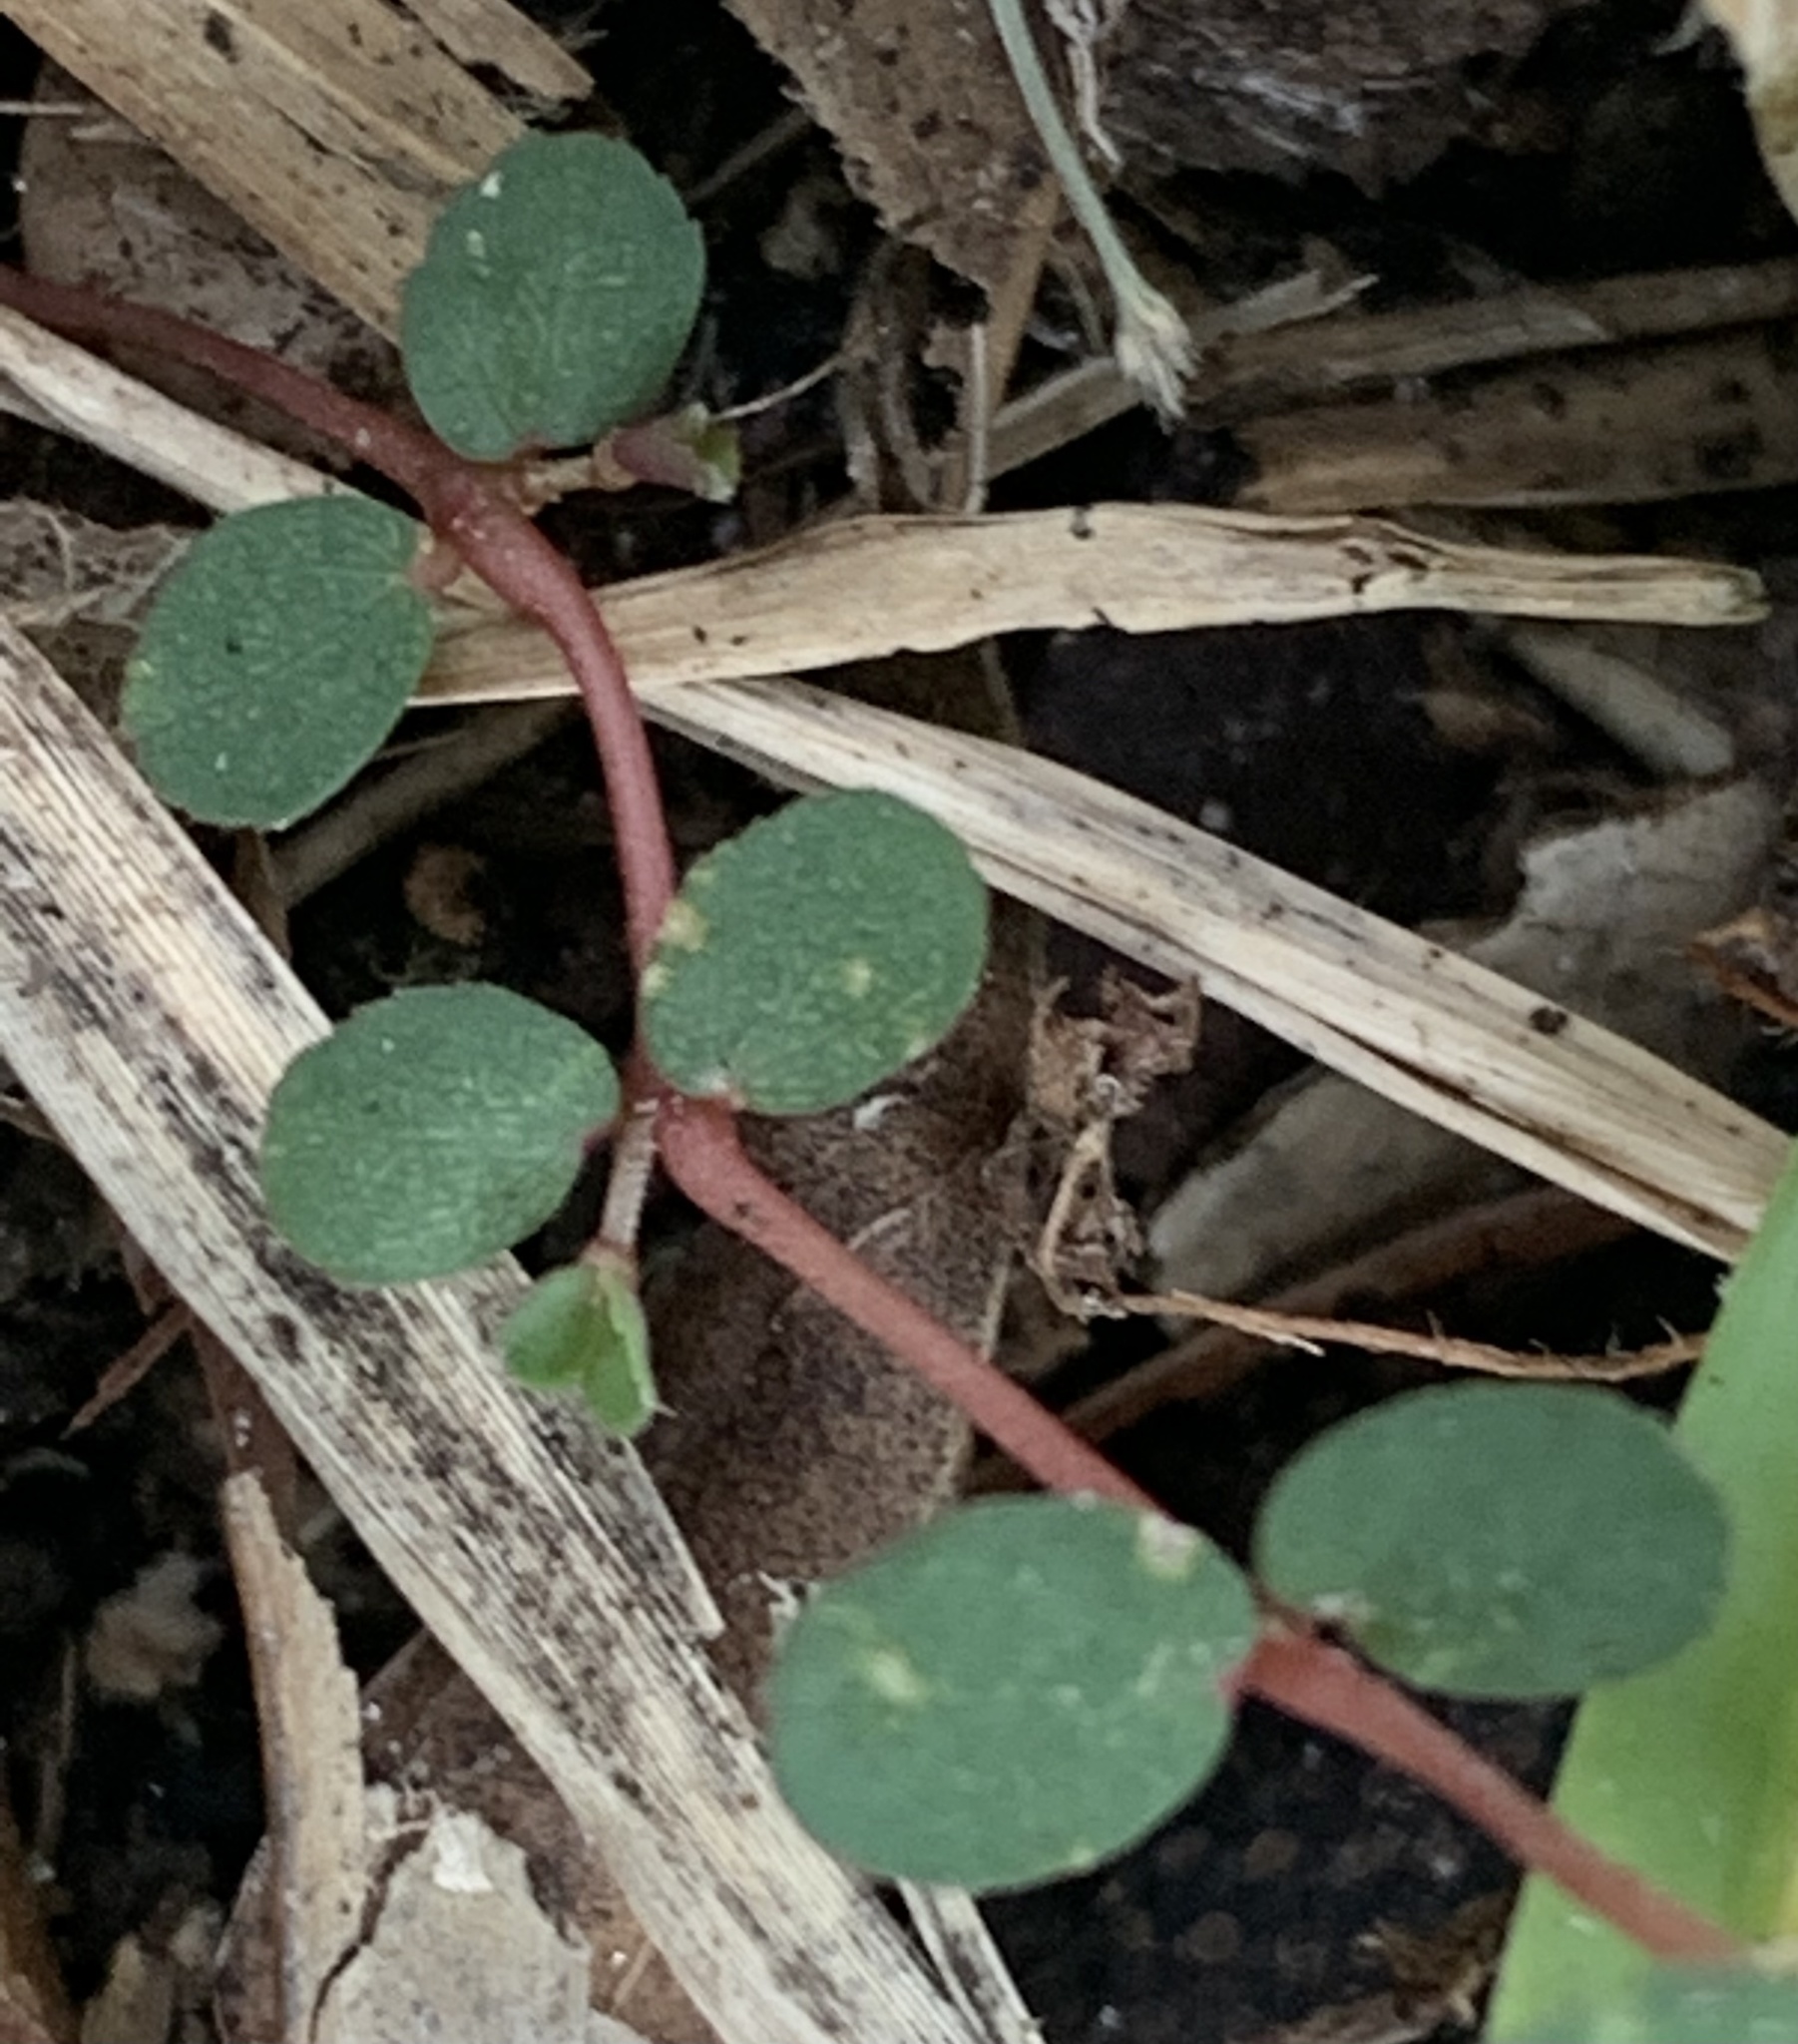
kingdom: Plantae
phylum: Tracheophyta
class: Magnoliopsida
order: Malpighiales
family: Euphorbiaceae
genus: Euphorbia
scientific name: Euphorbia prostrata
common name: Prostrate sandmat
